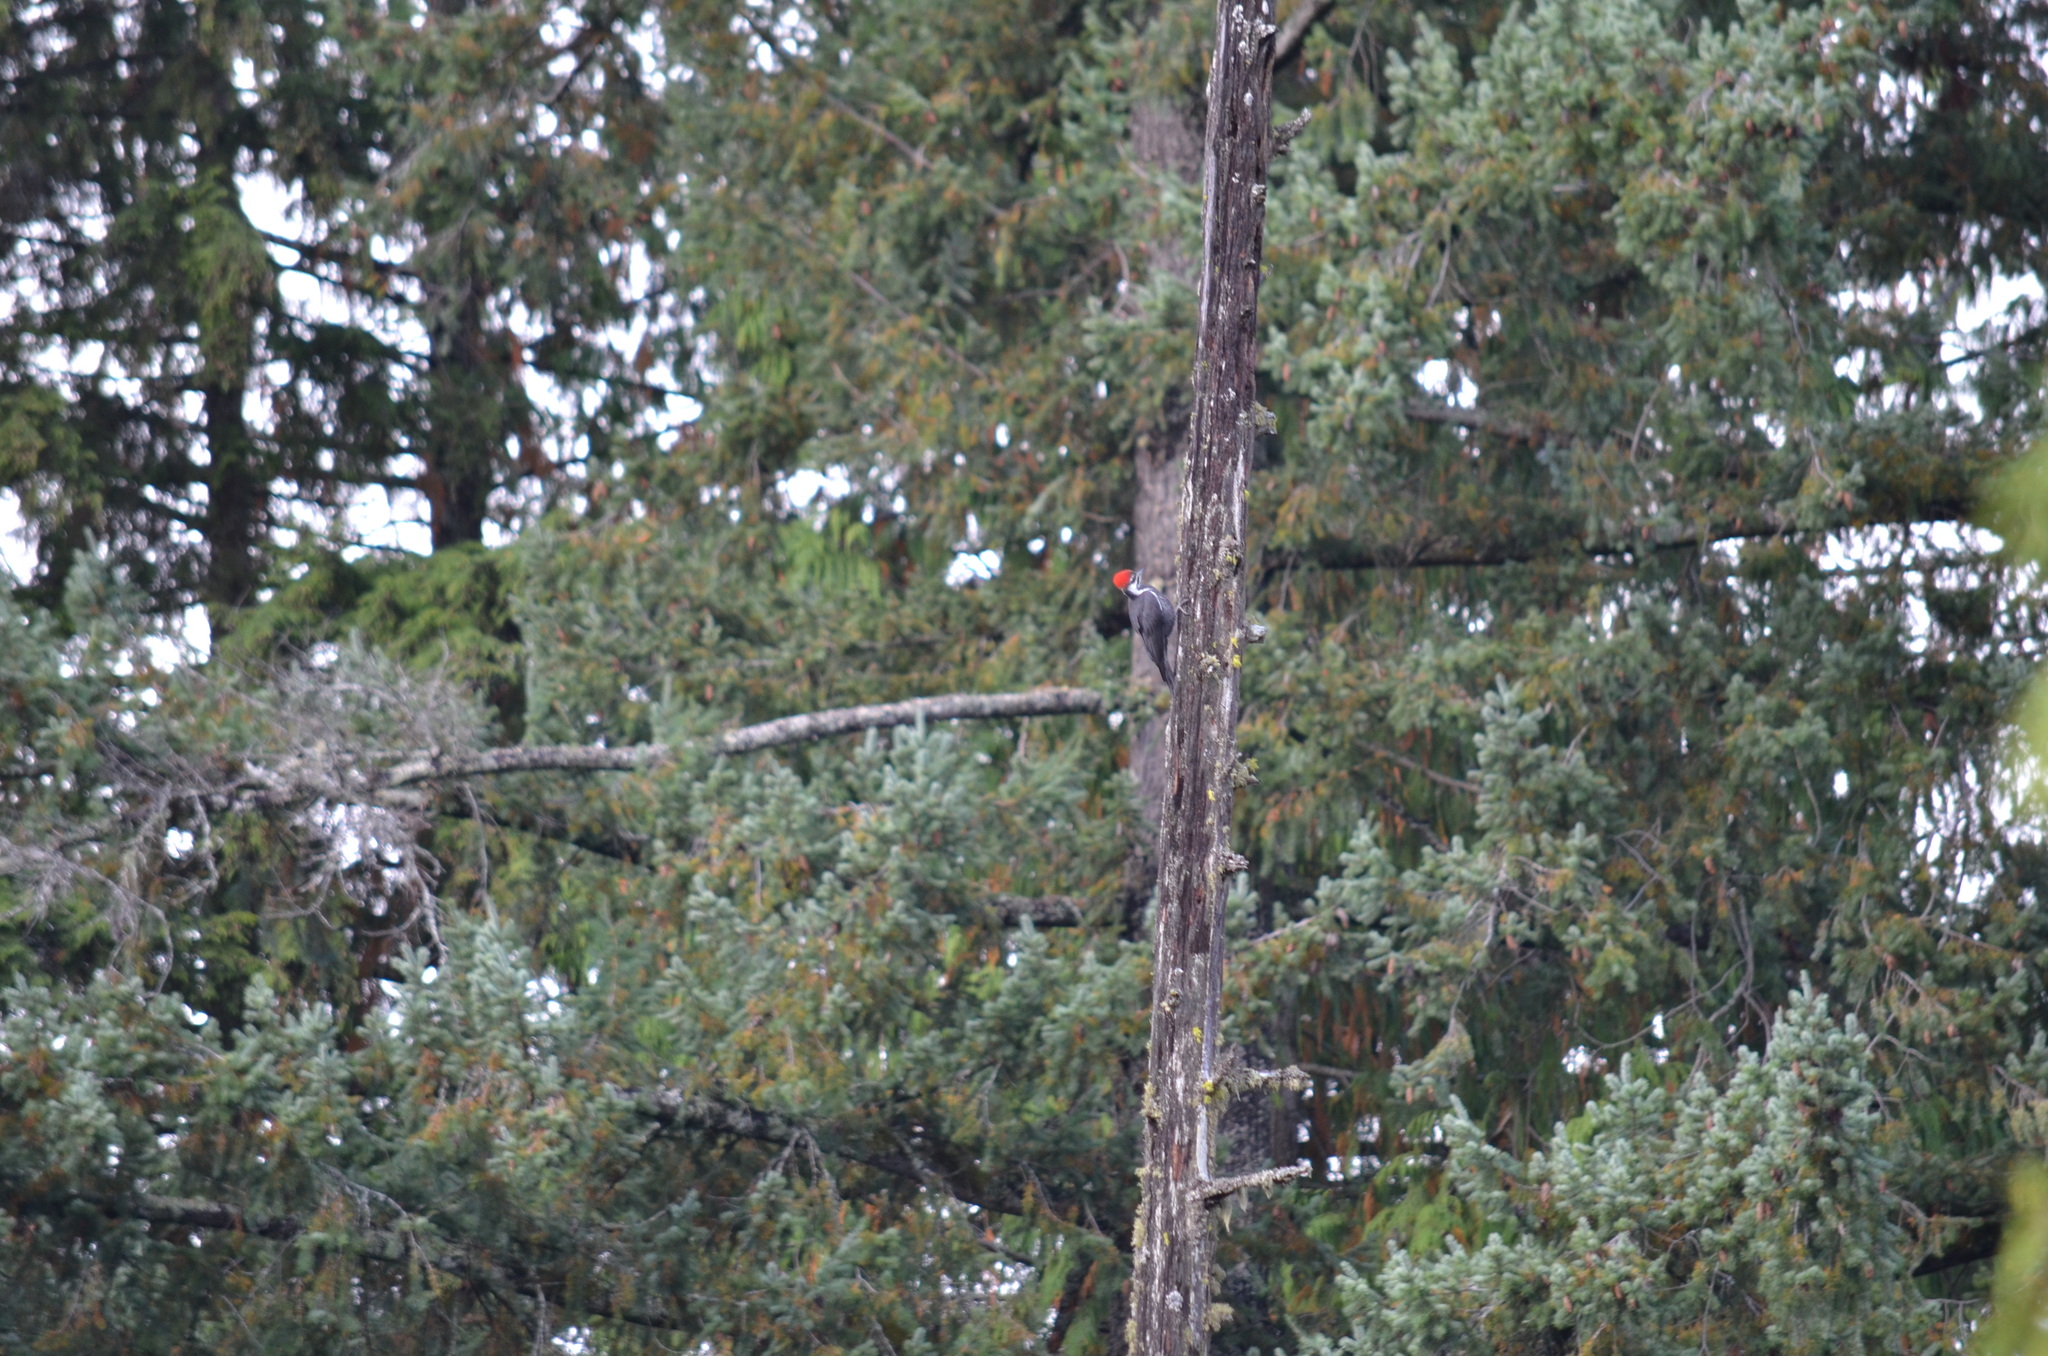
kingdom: Animalia
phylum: Chordata
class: Aves
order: Piciformes
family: Picidae
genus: Dryocopus
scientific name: Dryocopus pileatus
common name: Pileated woodpecker
